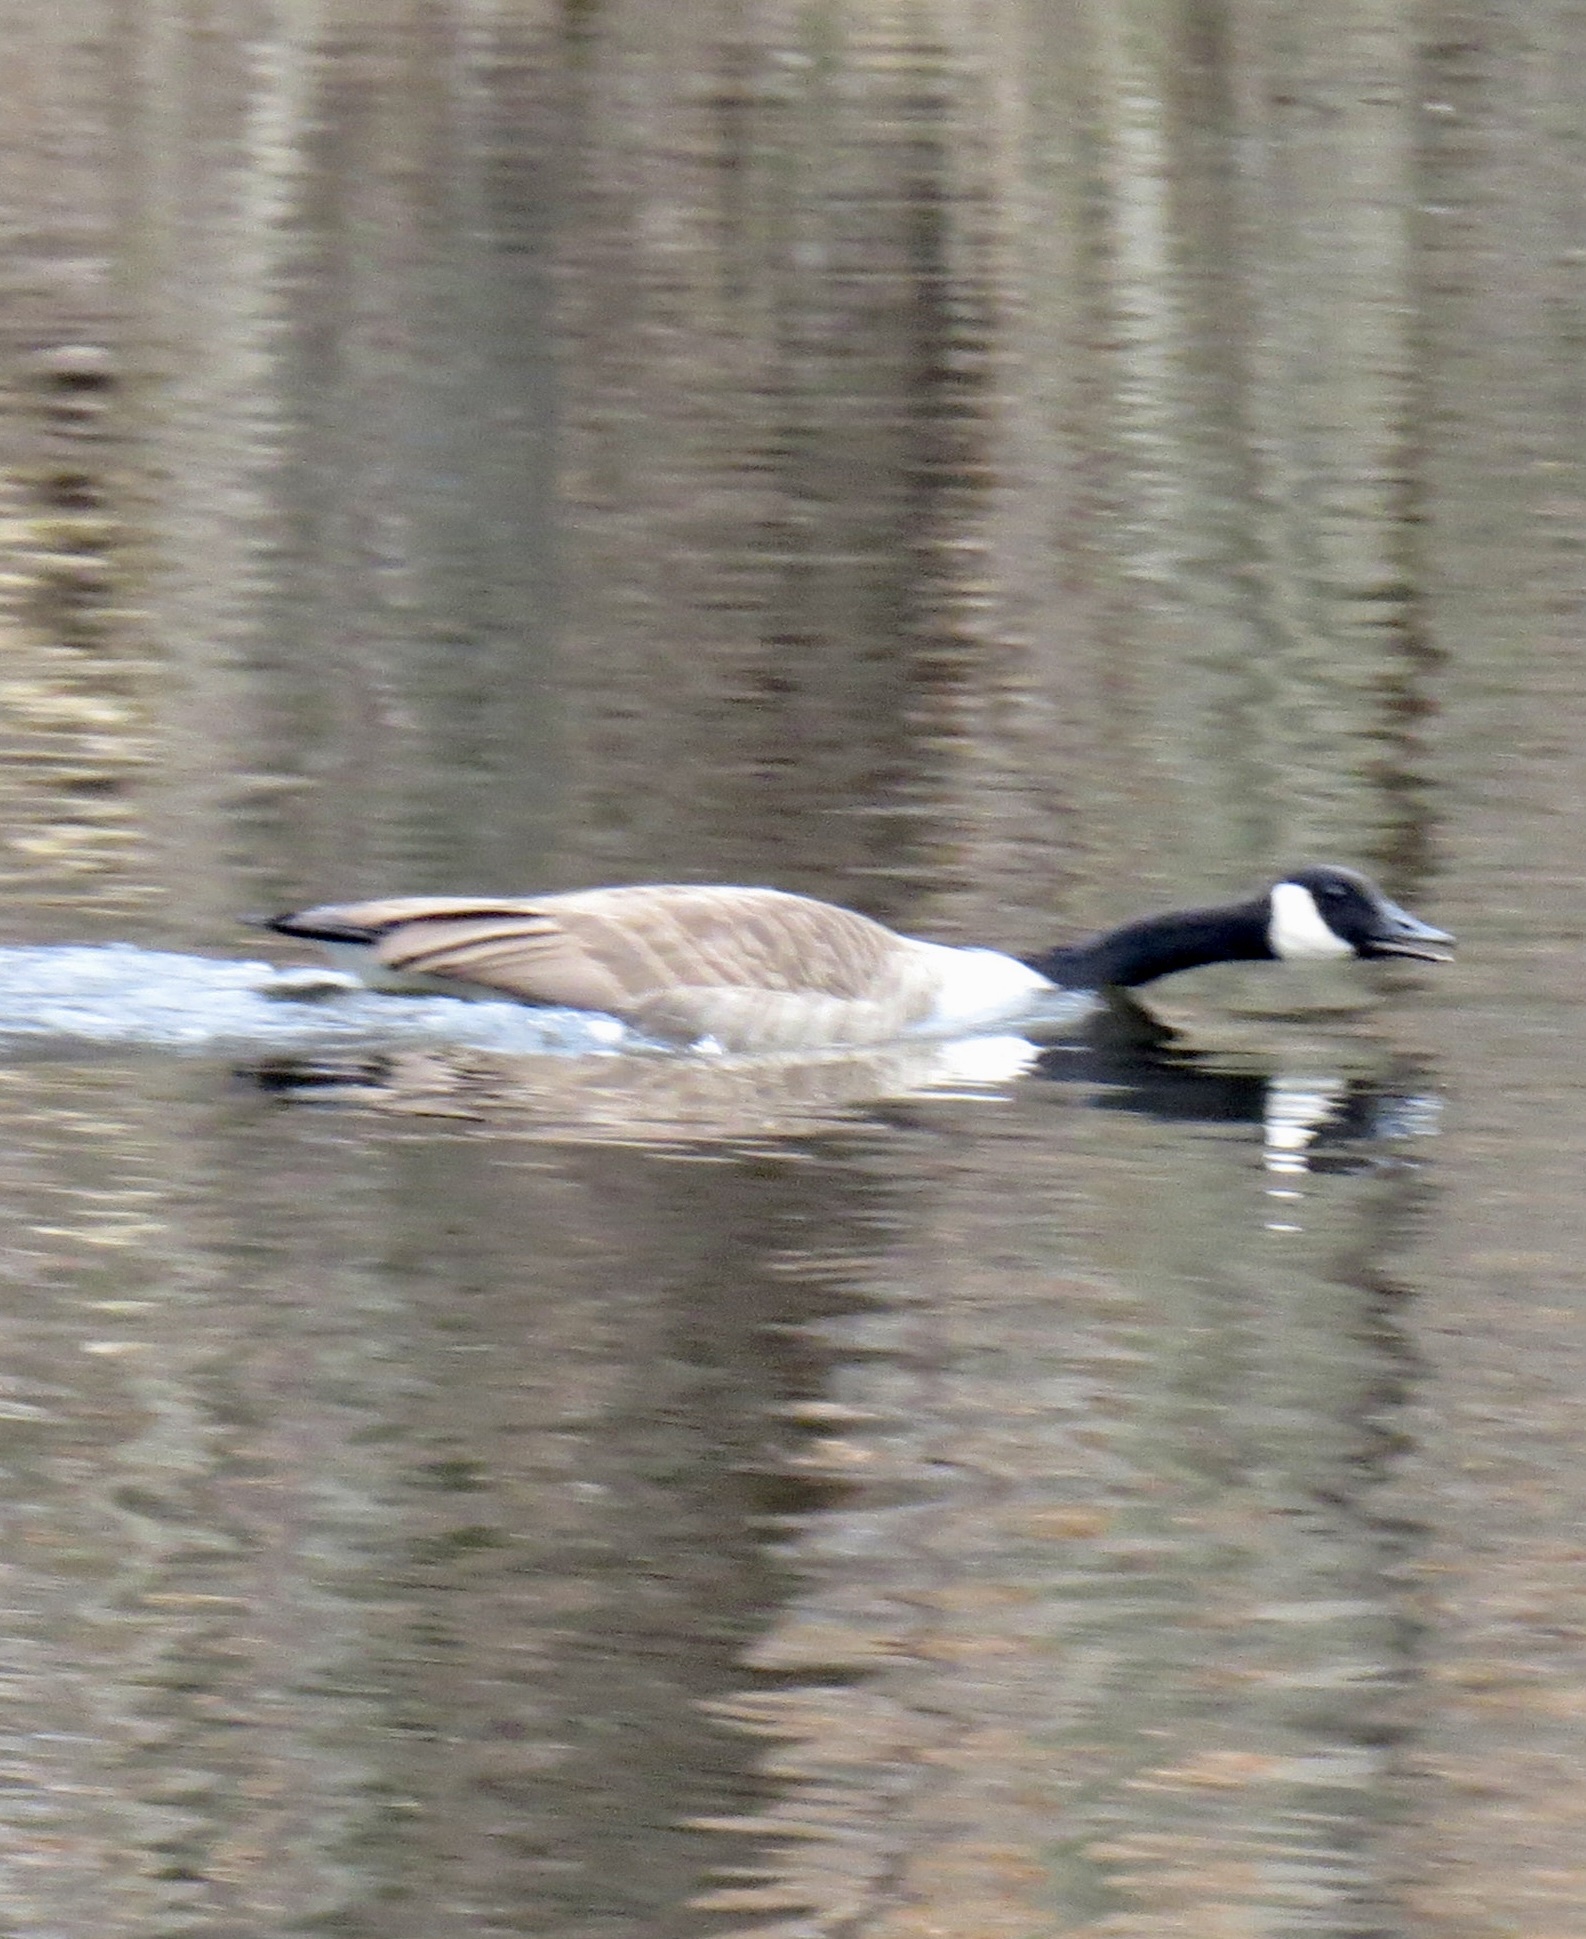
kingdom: Animalia
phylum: Chordata
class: Aves
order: Anseriformes
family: Anatidae
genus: Branta
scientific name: Branta canadensis
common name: Canada goose
